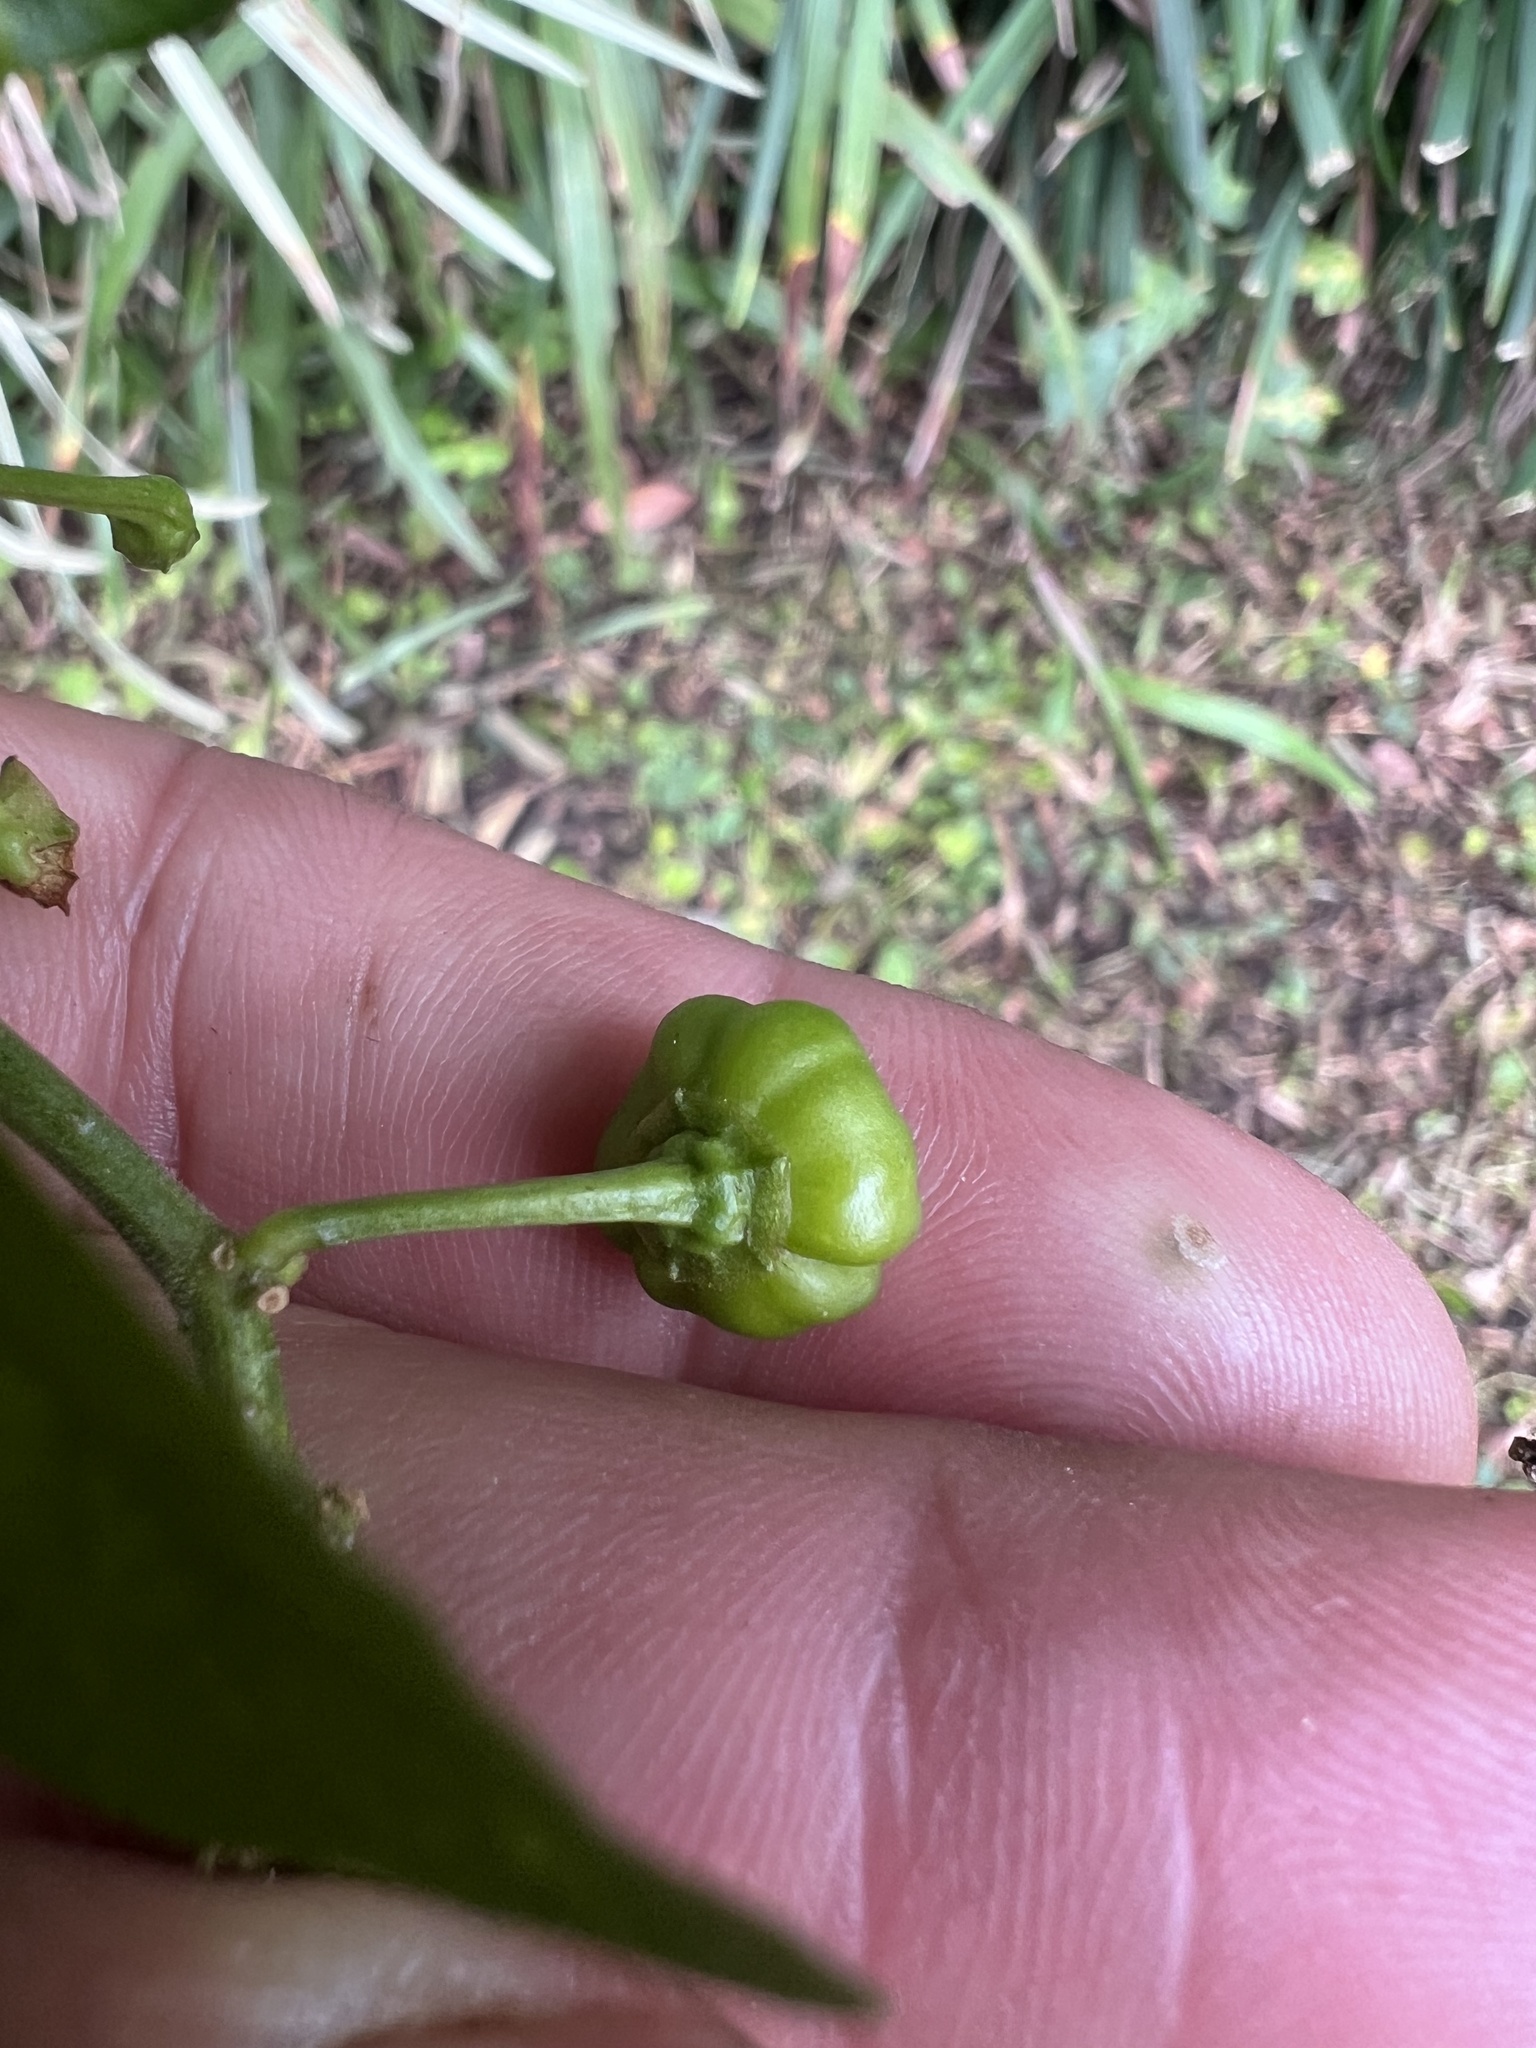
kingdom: Plantae
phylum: Tracheophyta
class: Magnoliopsida
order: Solanales
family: Solanaceae
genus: Capsicum
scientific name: Capsicum annuum
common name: Sweet pepper
